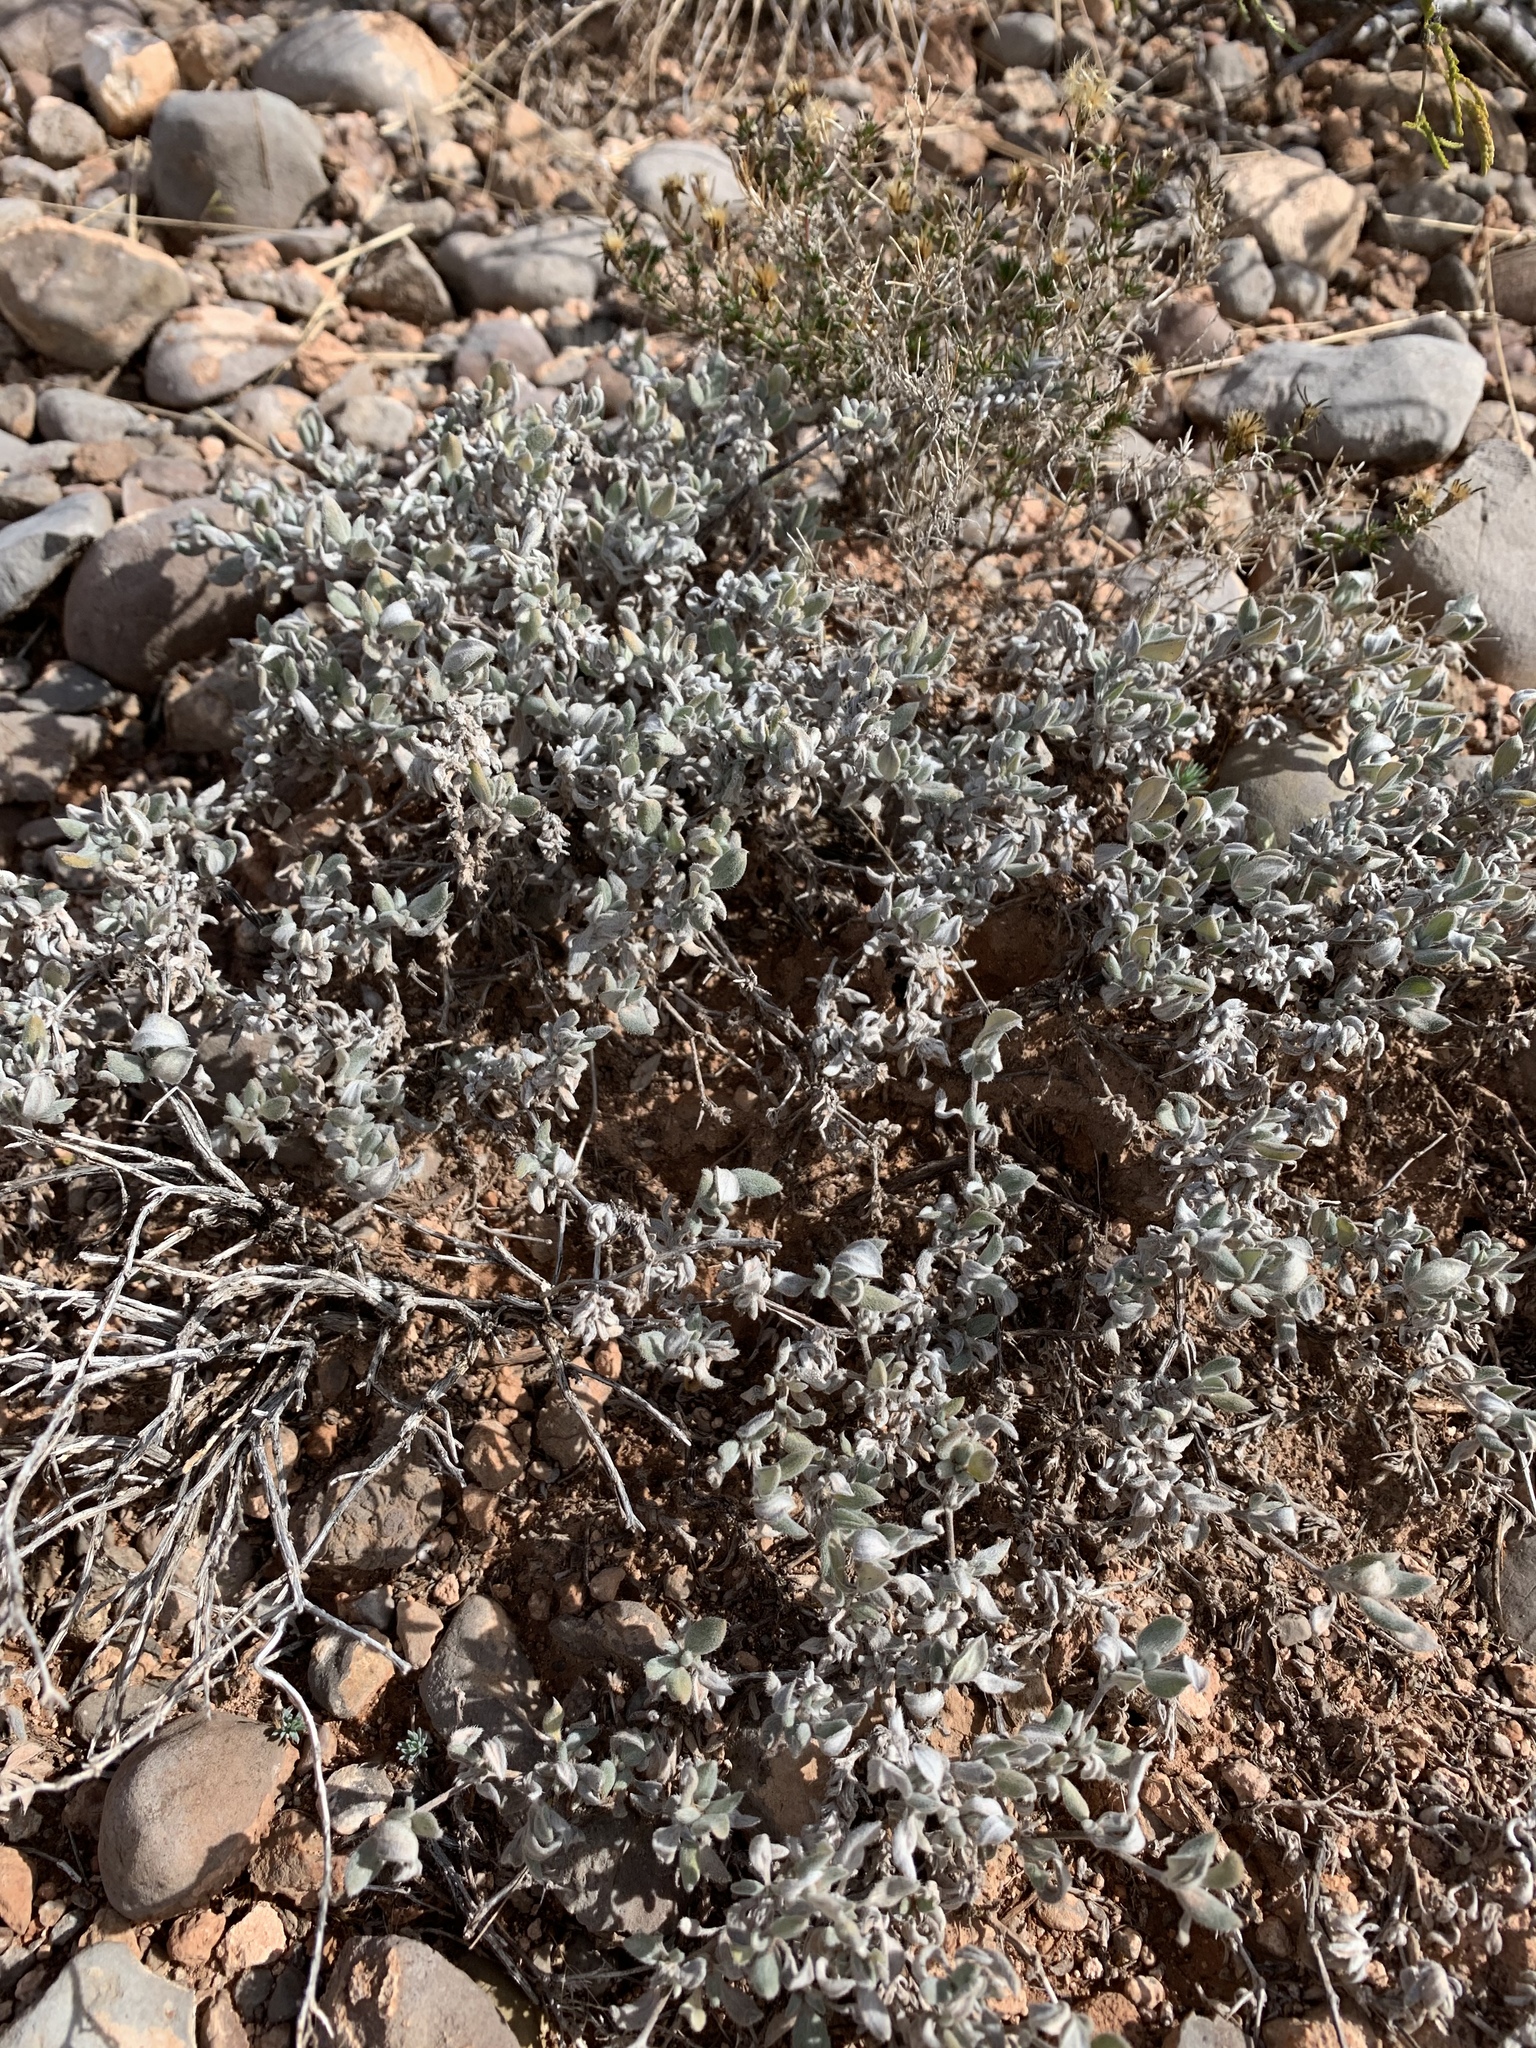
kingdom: Plantae
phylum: Tracheophyta
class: Magnoliopsida
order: Boraginales
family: Ehretiaceae
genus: Tiquilia
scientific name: Tiquilia canescens
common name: Hairy tiquilia
